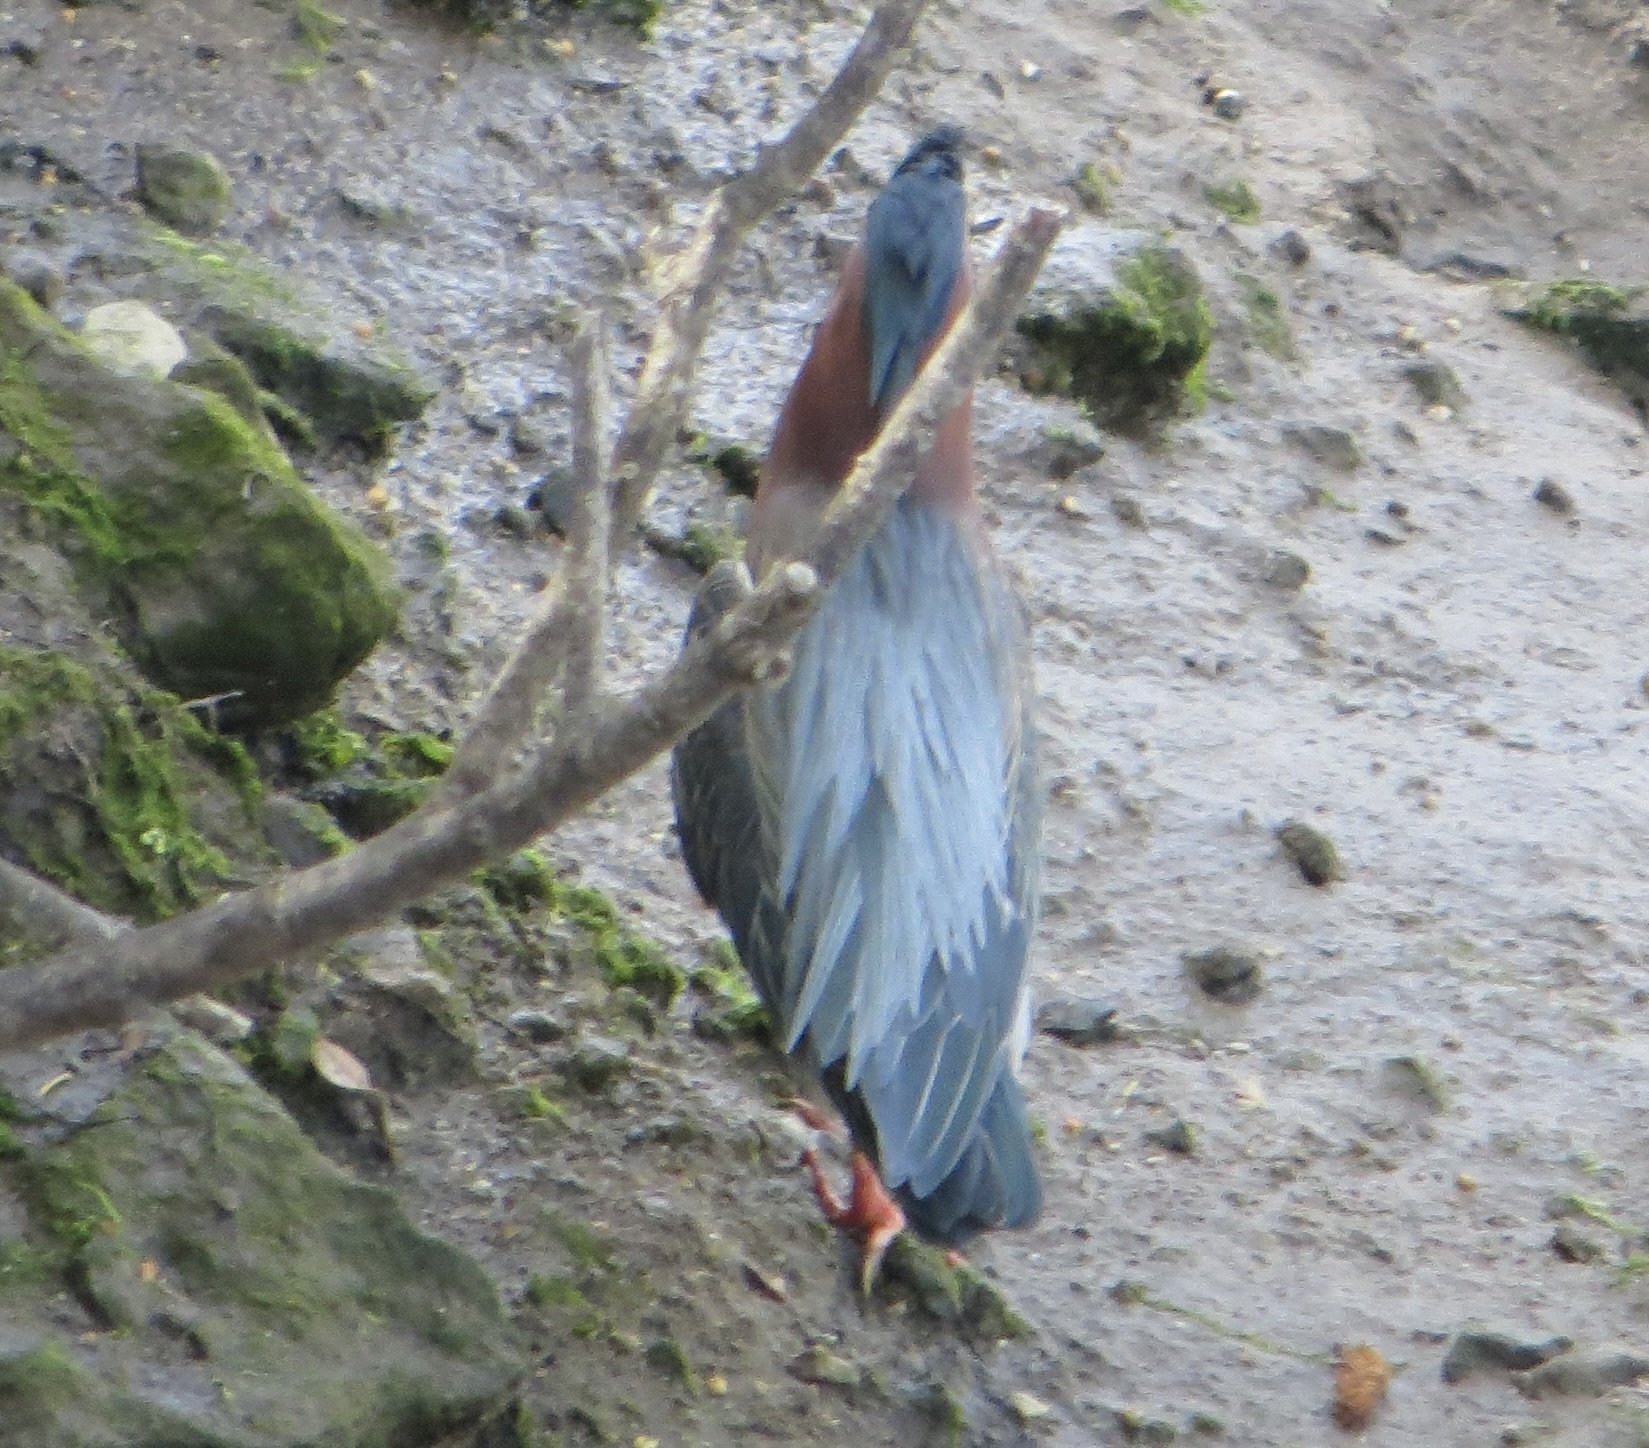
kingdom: Animalia
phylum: Chordata
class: Aves
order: Pelecaniformes
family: Ardeidae
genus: Butorides
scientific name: Butorides virescens
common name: Green heron
